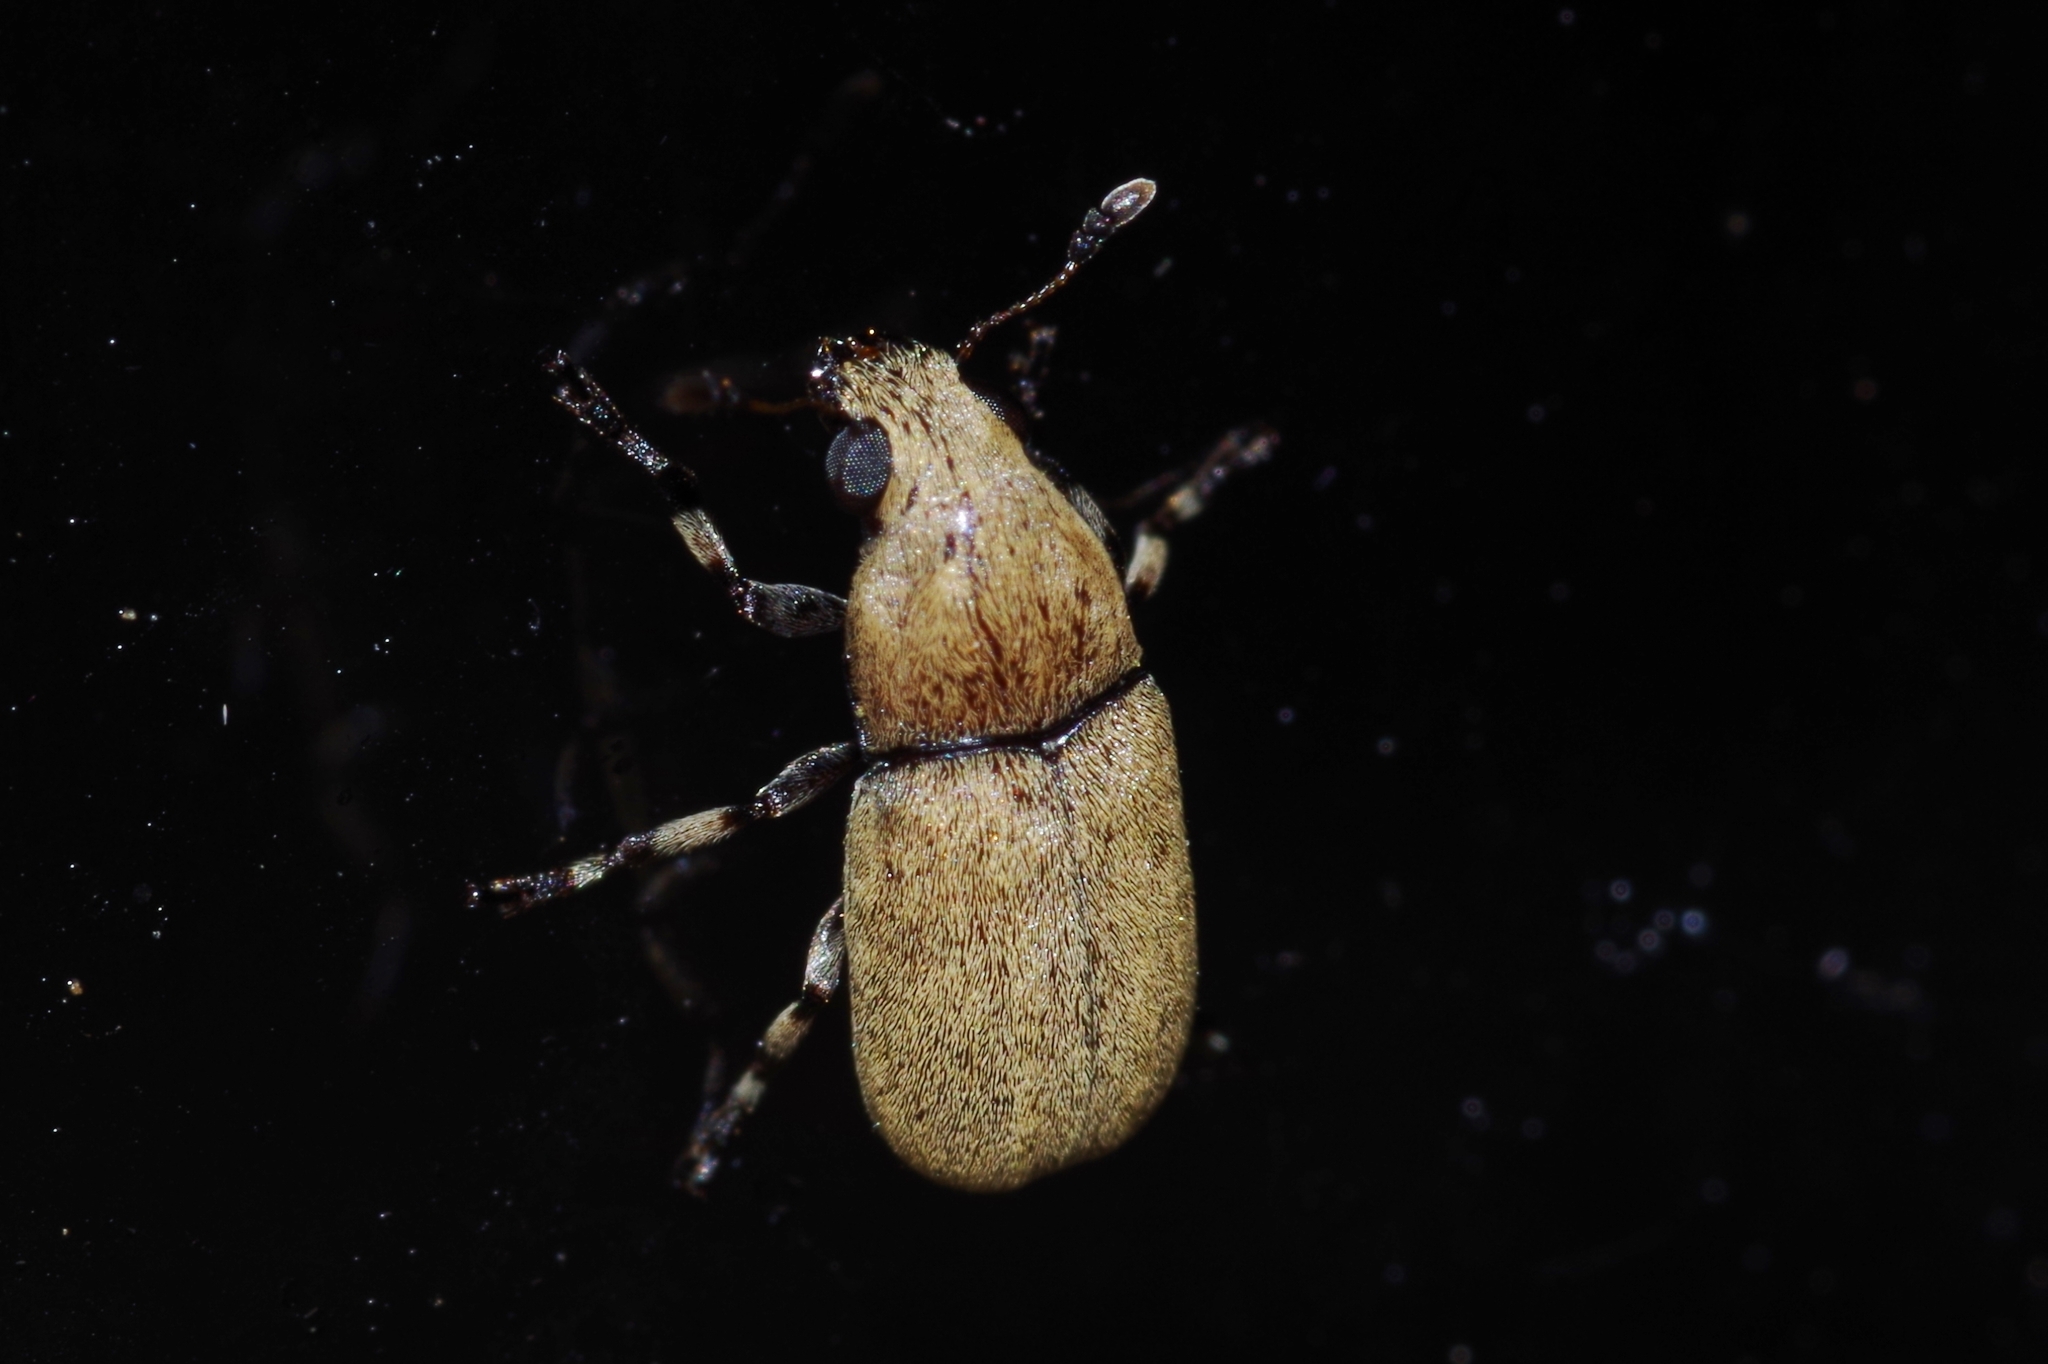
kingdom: Animalia
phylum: Arthropoda
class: Insecta
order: Coleoptera
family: Anthribidae
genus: Euparius
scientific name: Euparius concolor
